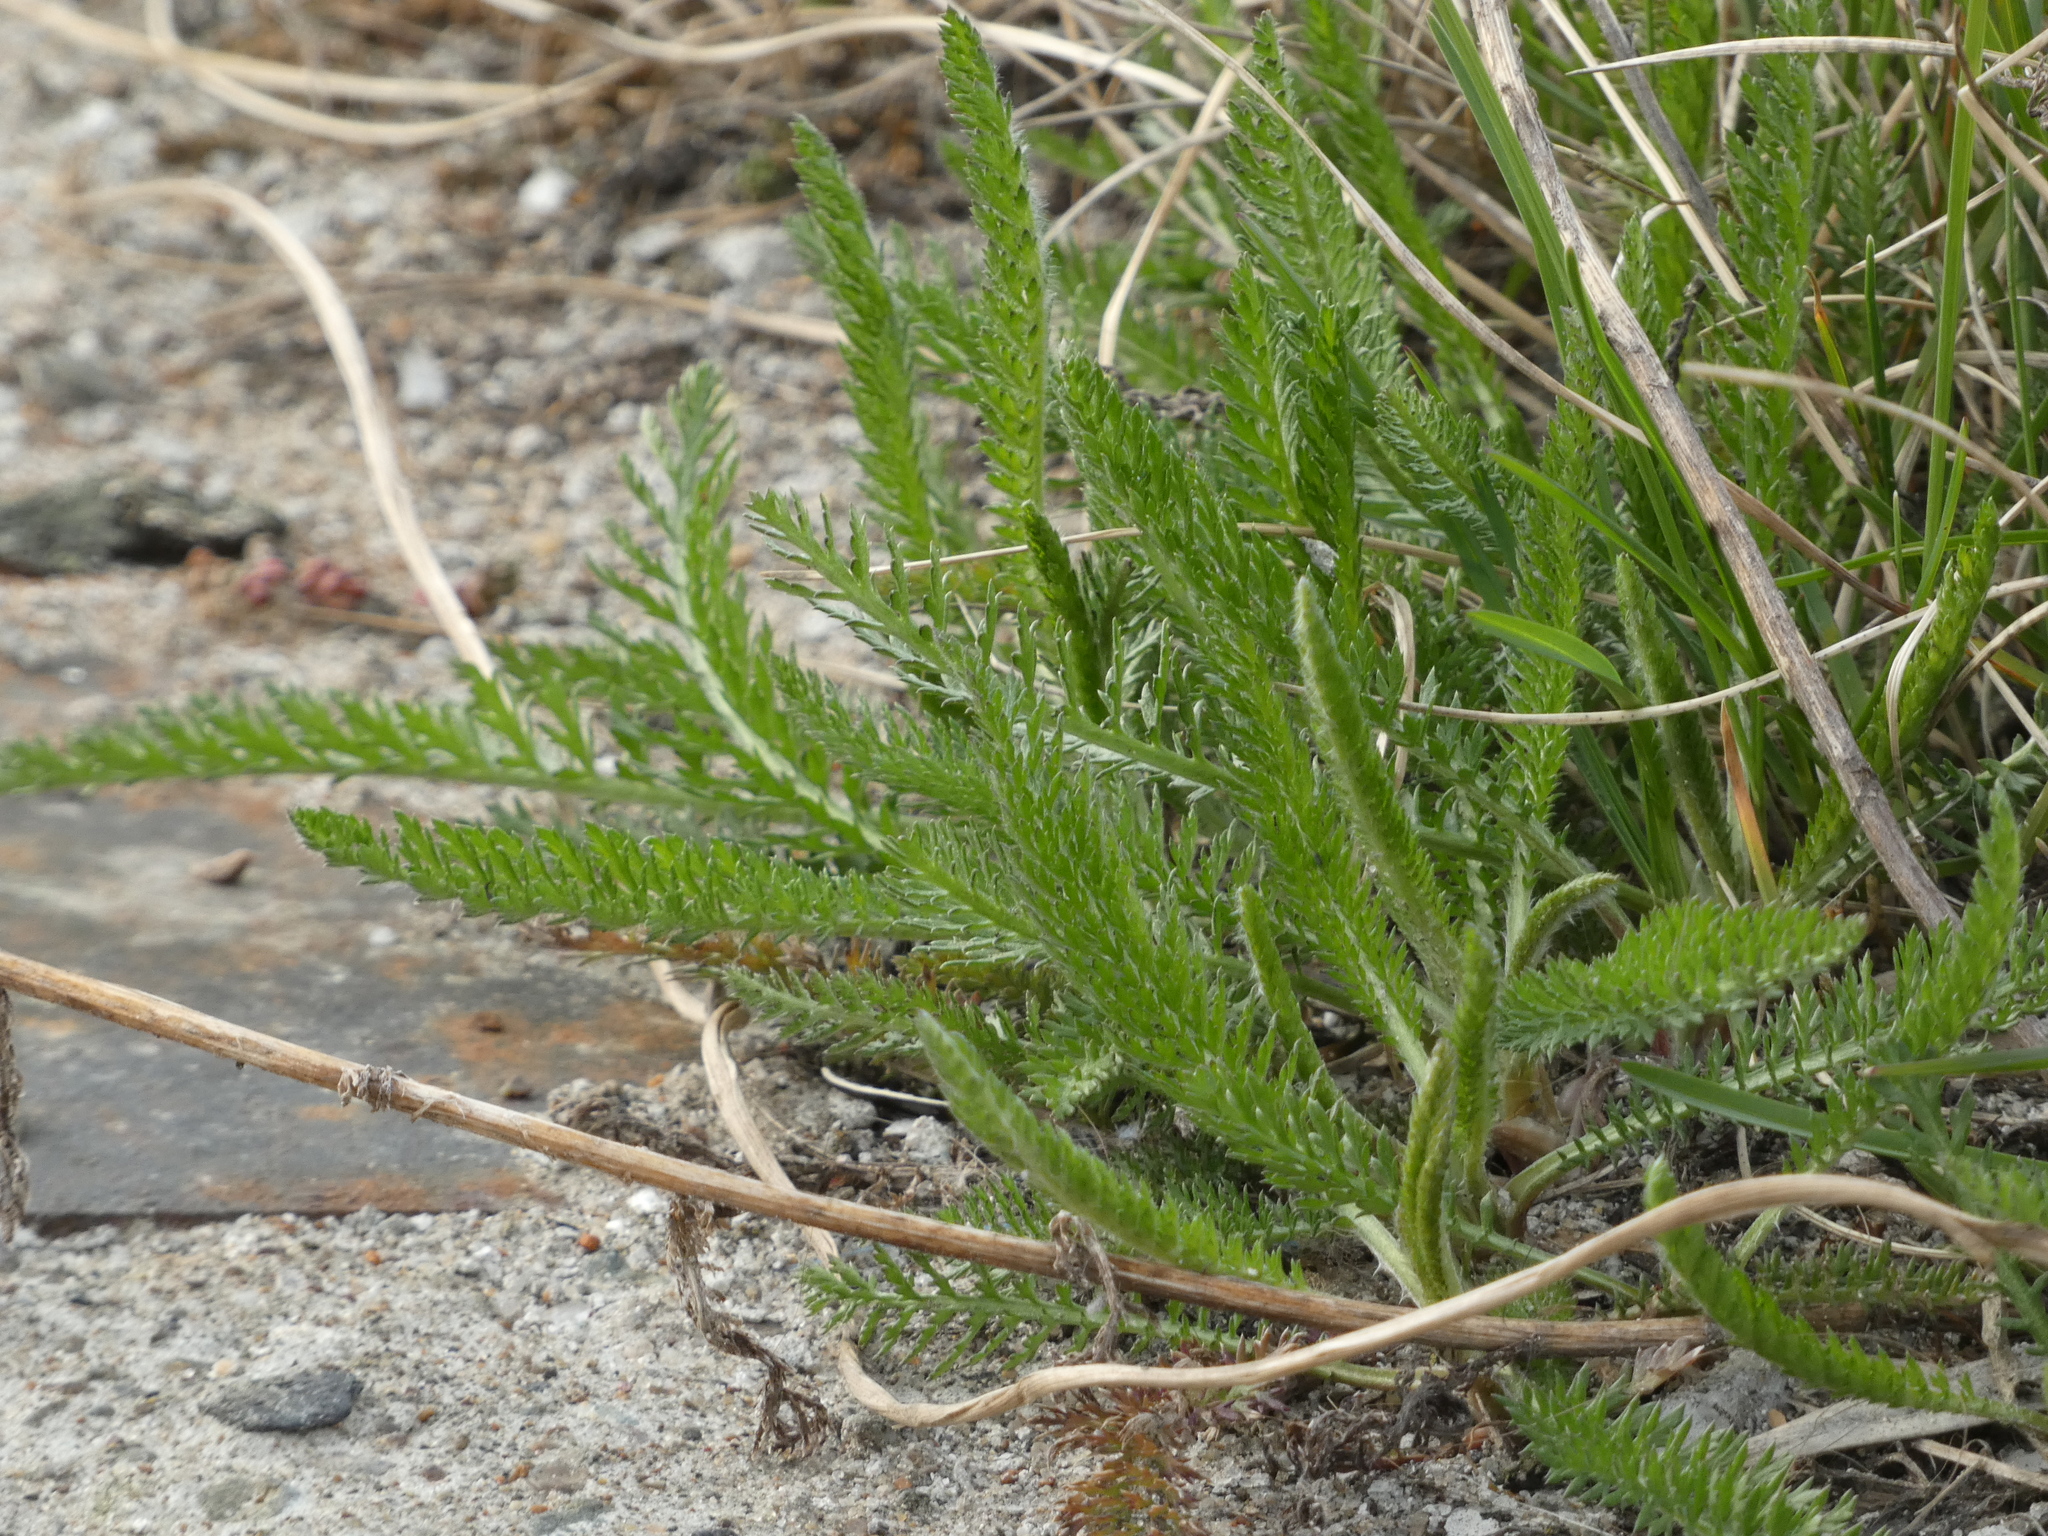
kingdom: Plantae
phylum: Tracheophyta
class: Magnoliopsida
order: Asterales
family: Asteraceae
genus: Achillea
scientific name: Achillea millefolium
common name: Yarrow
